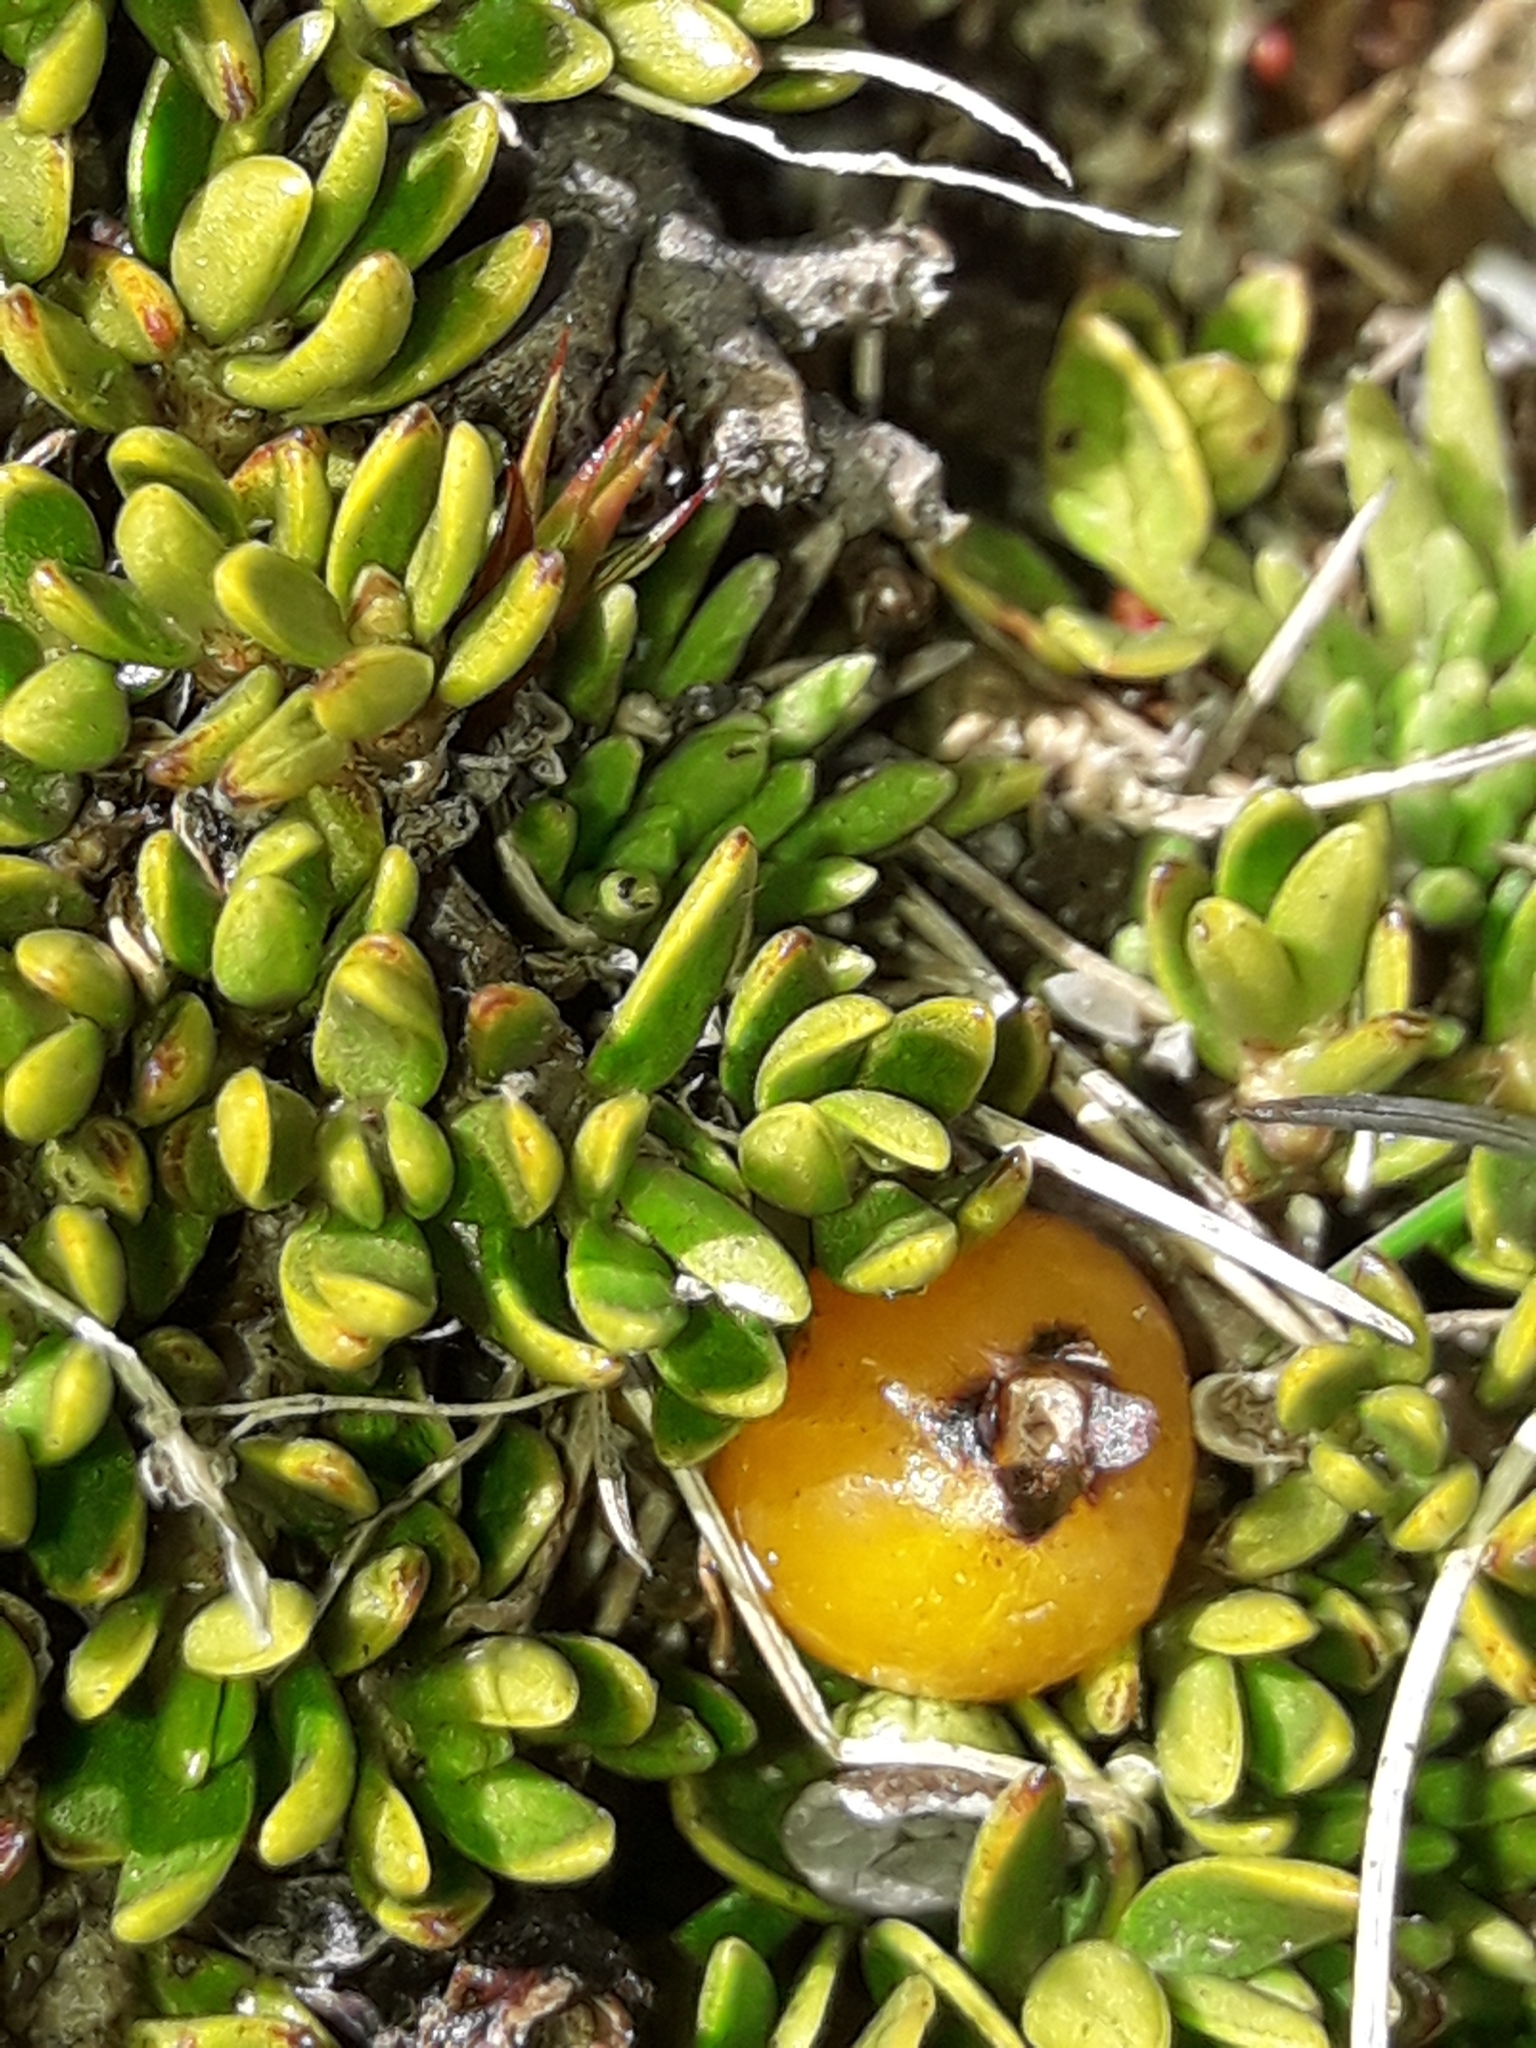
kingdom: Plantae
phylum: Tracheophyta
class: Magnoliopsida
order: Gentianales
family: Rubiaceae
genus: Coprosma
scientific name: Coprosma perpusilla
